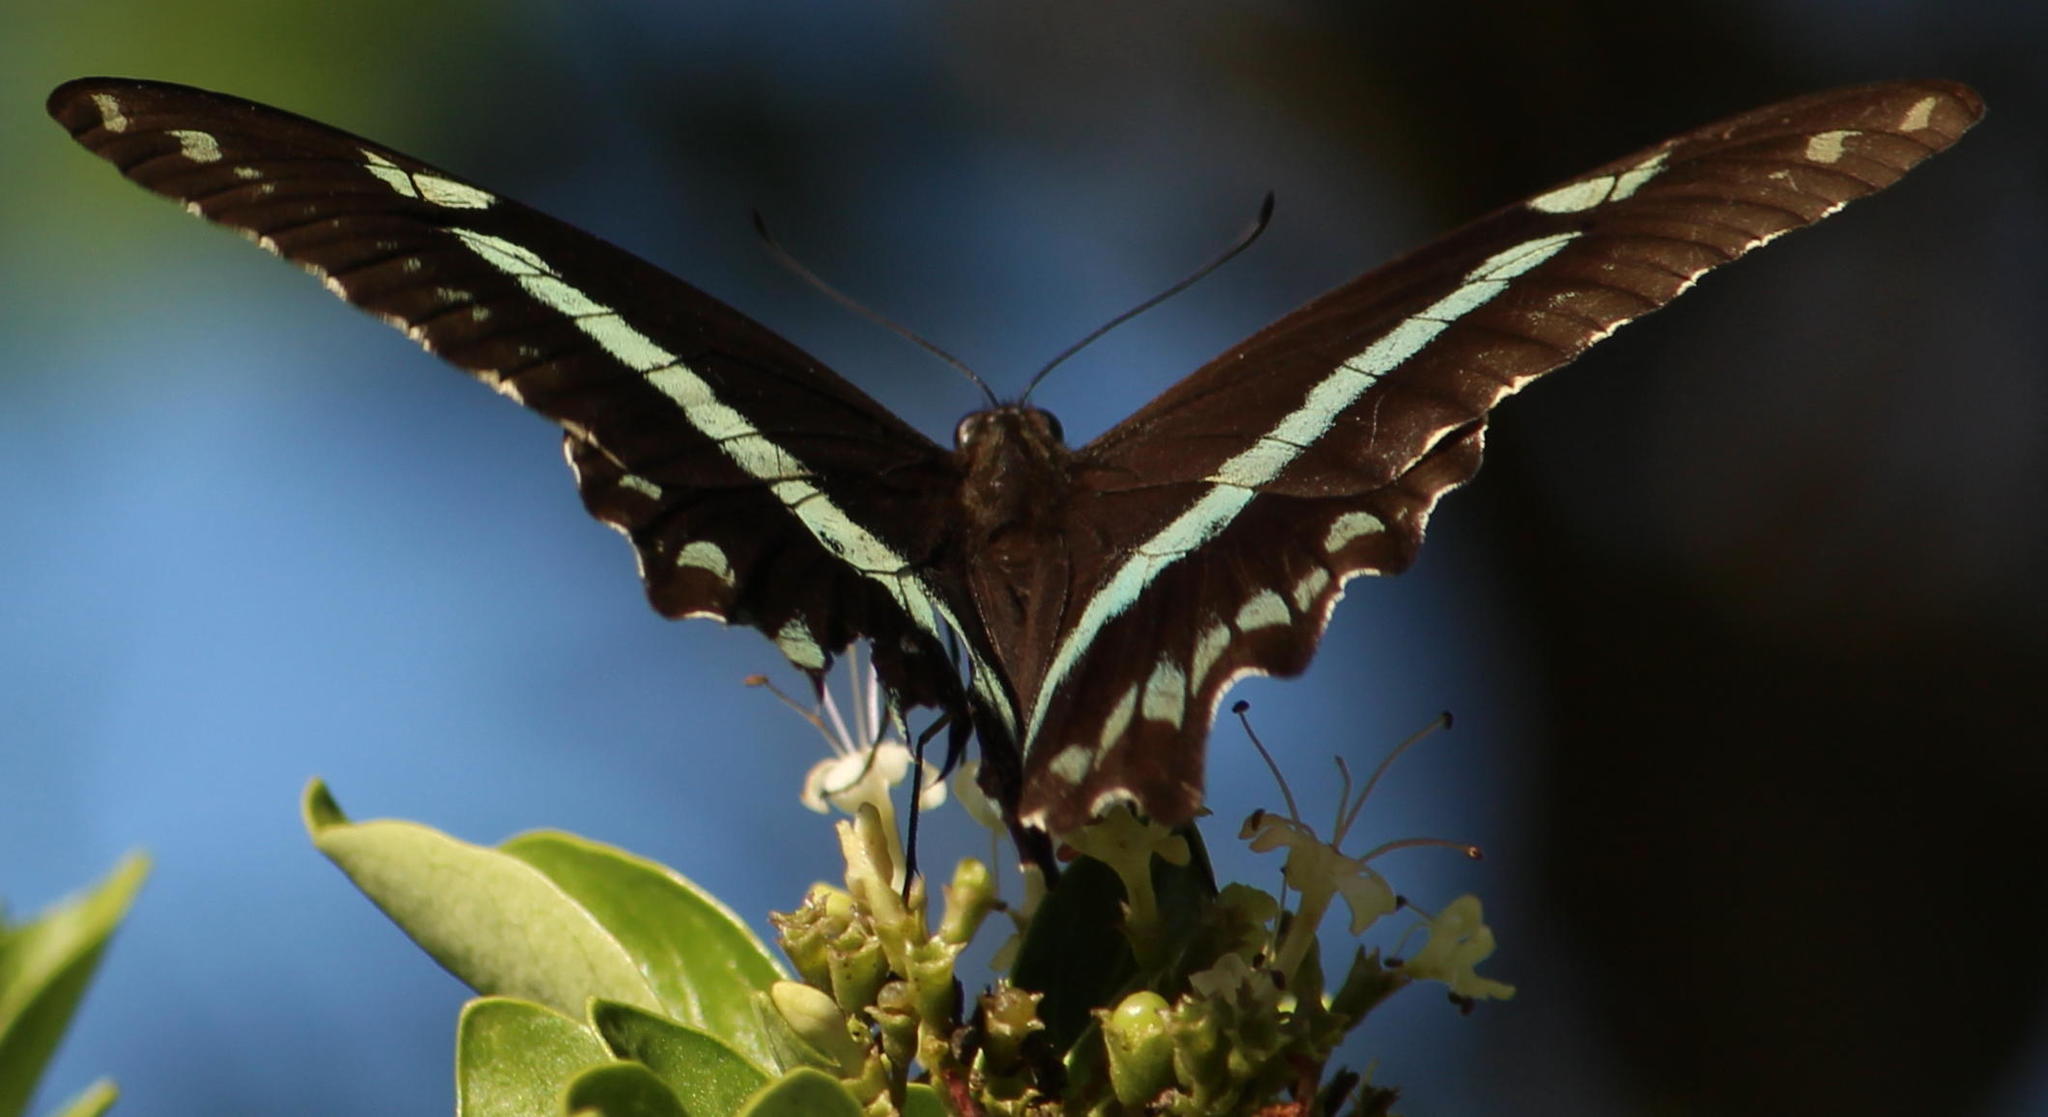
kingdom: Animalia
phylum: Arthropoda
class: Insecta
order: Lepidoptera
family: Papilionidae
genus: Papilio
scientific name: Papilio nireus
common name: Greenbanded swallowtail
